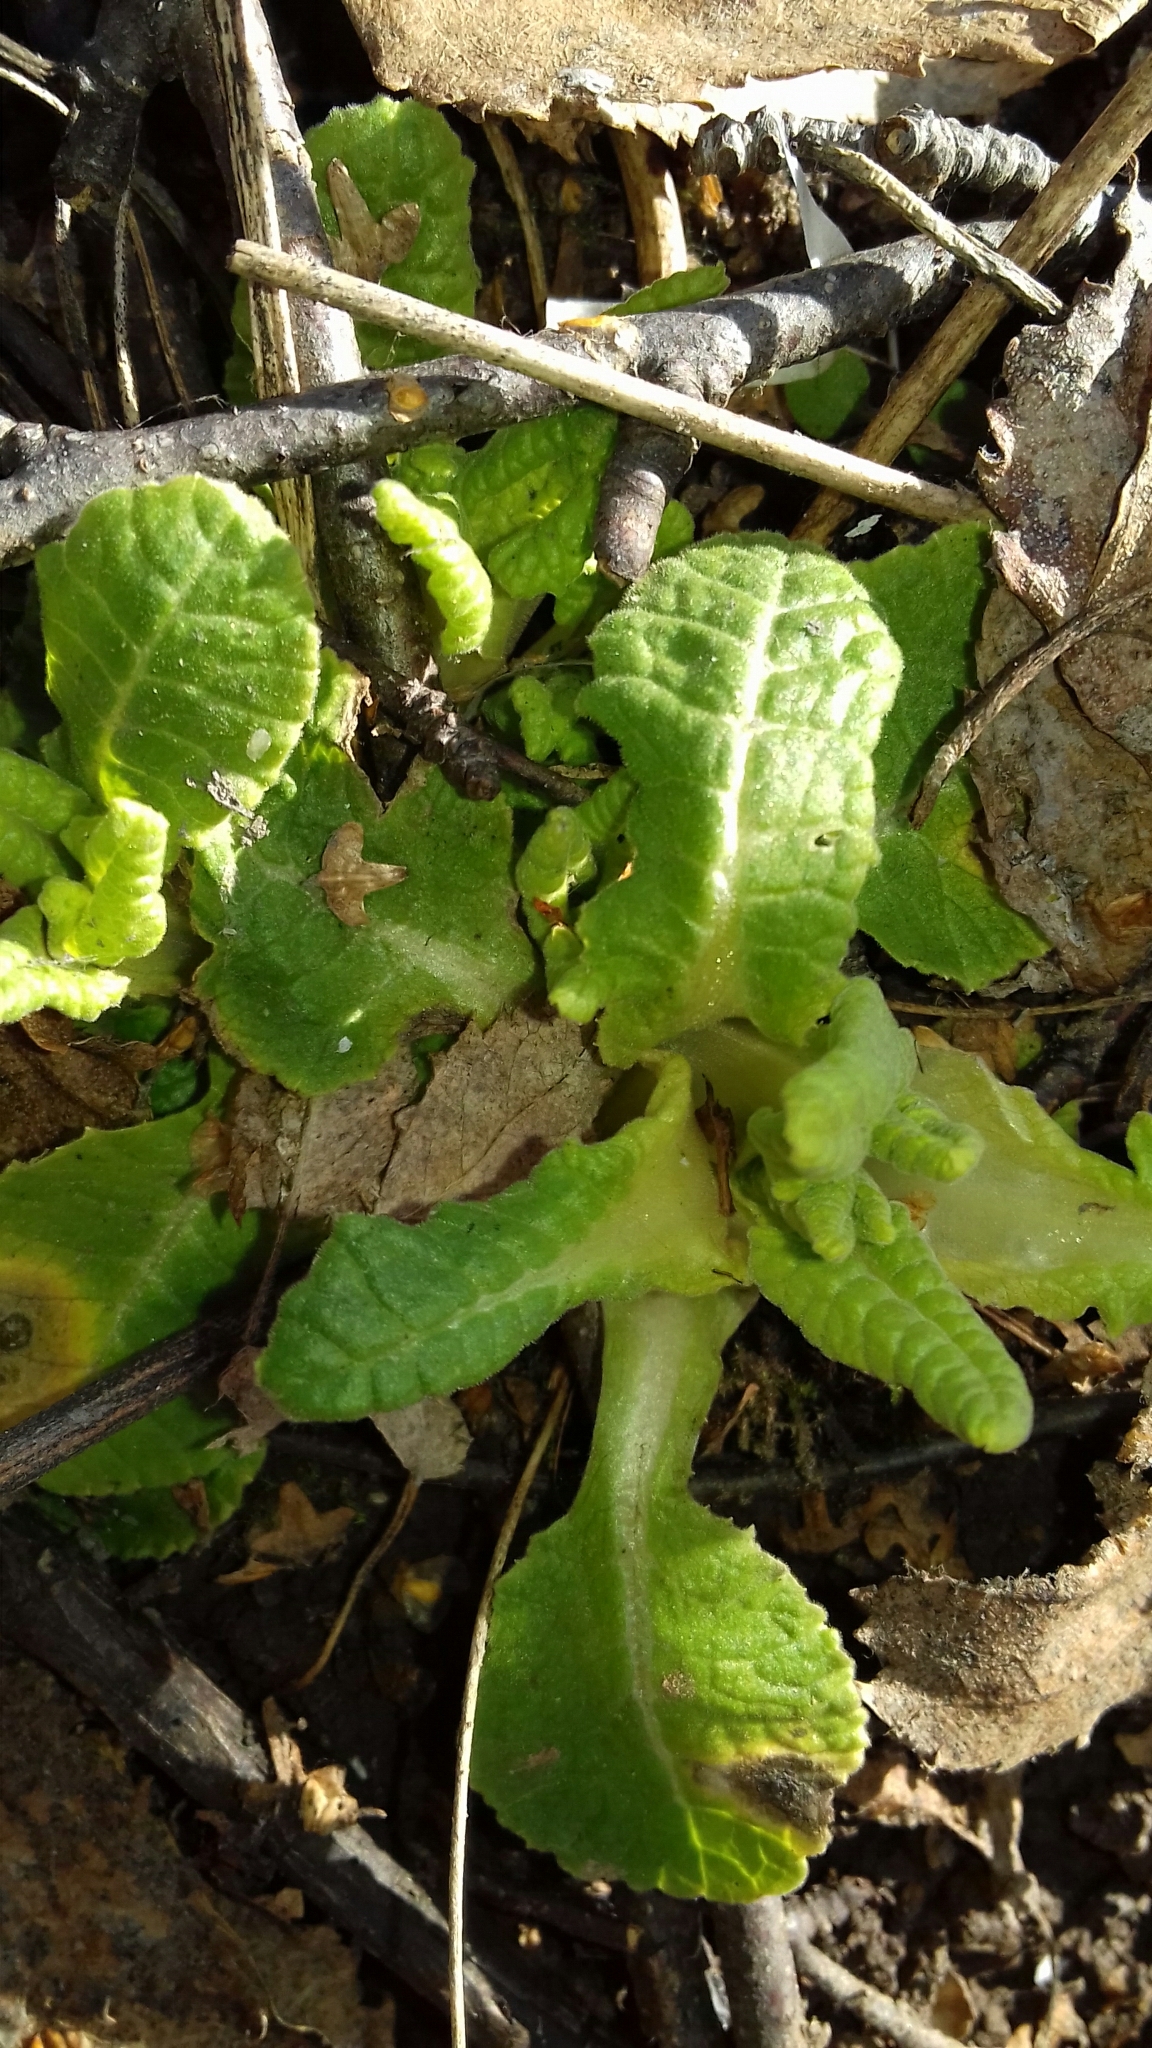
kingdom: Plantae
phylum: Tracheophyta
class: Magnoliopsida
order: Ericales
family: Primulaceae
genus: Primula
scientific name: Primula veris
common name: Cowslip
